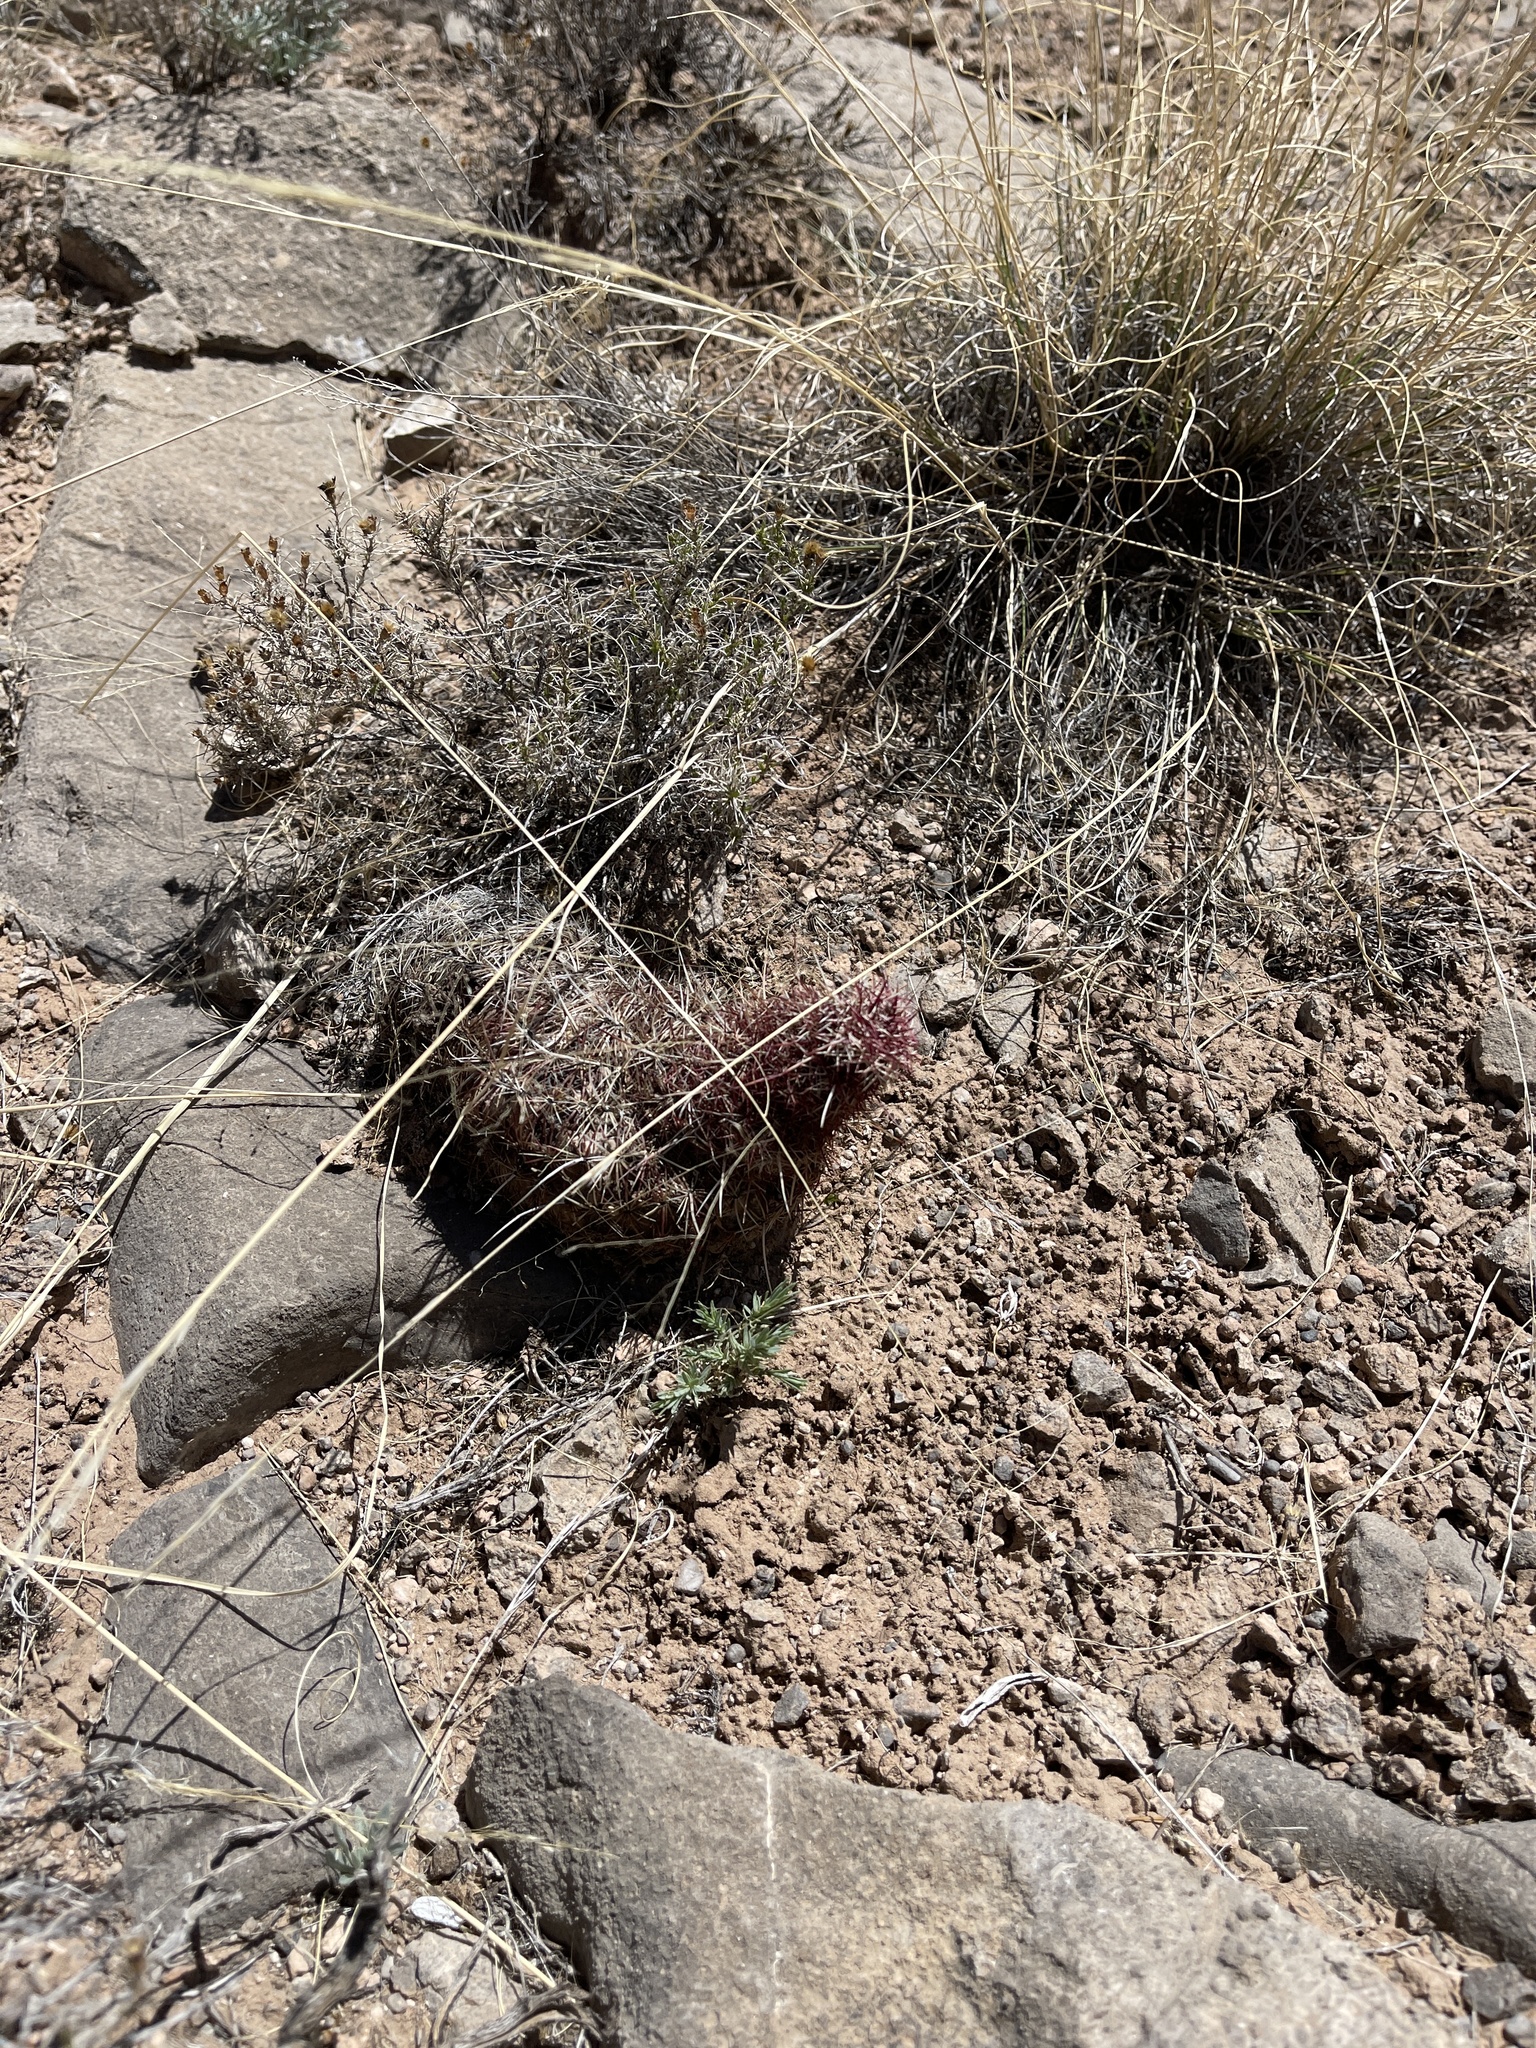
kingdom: Plantae
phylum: Tracheophyta
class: Magnoliopsida
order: Caryophyllales
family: Cactaceae
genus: Echinocereus
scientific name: Echinocereus viridiflorus
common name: Nylon hedgehog cactus
